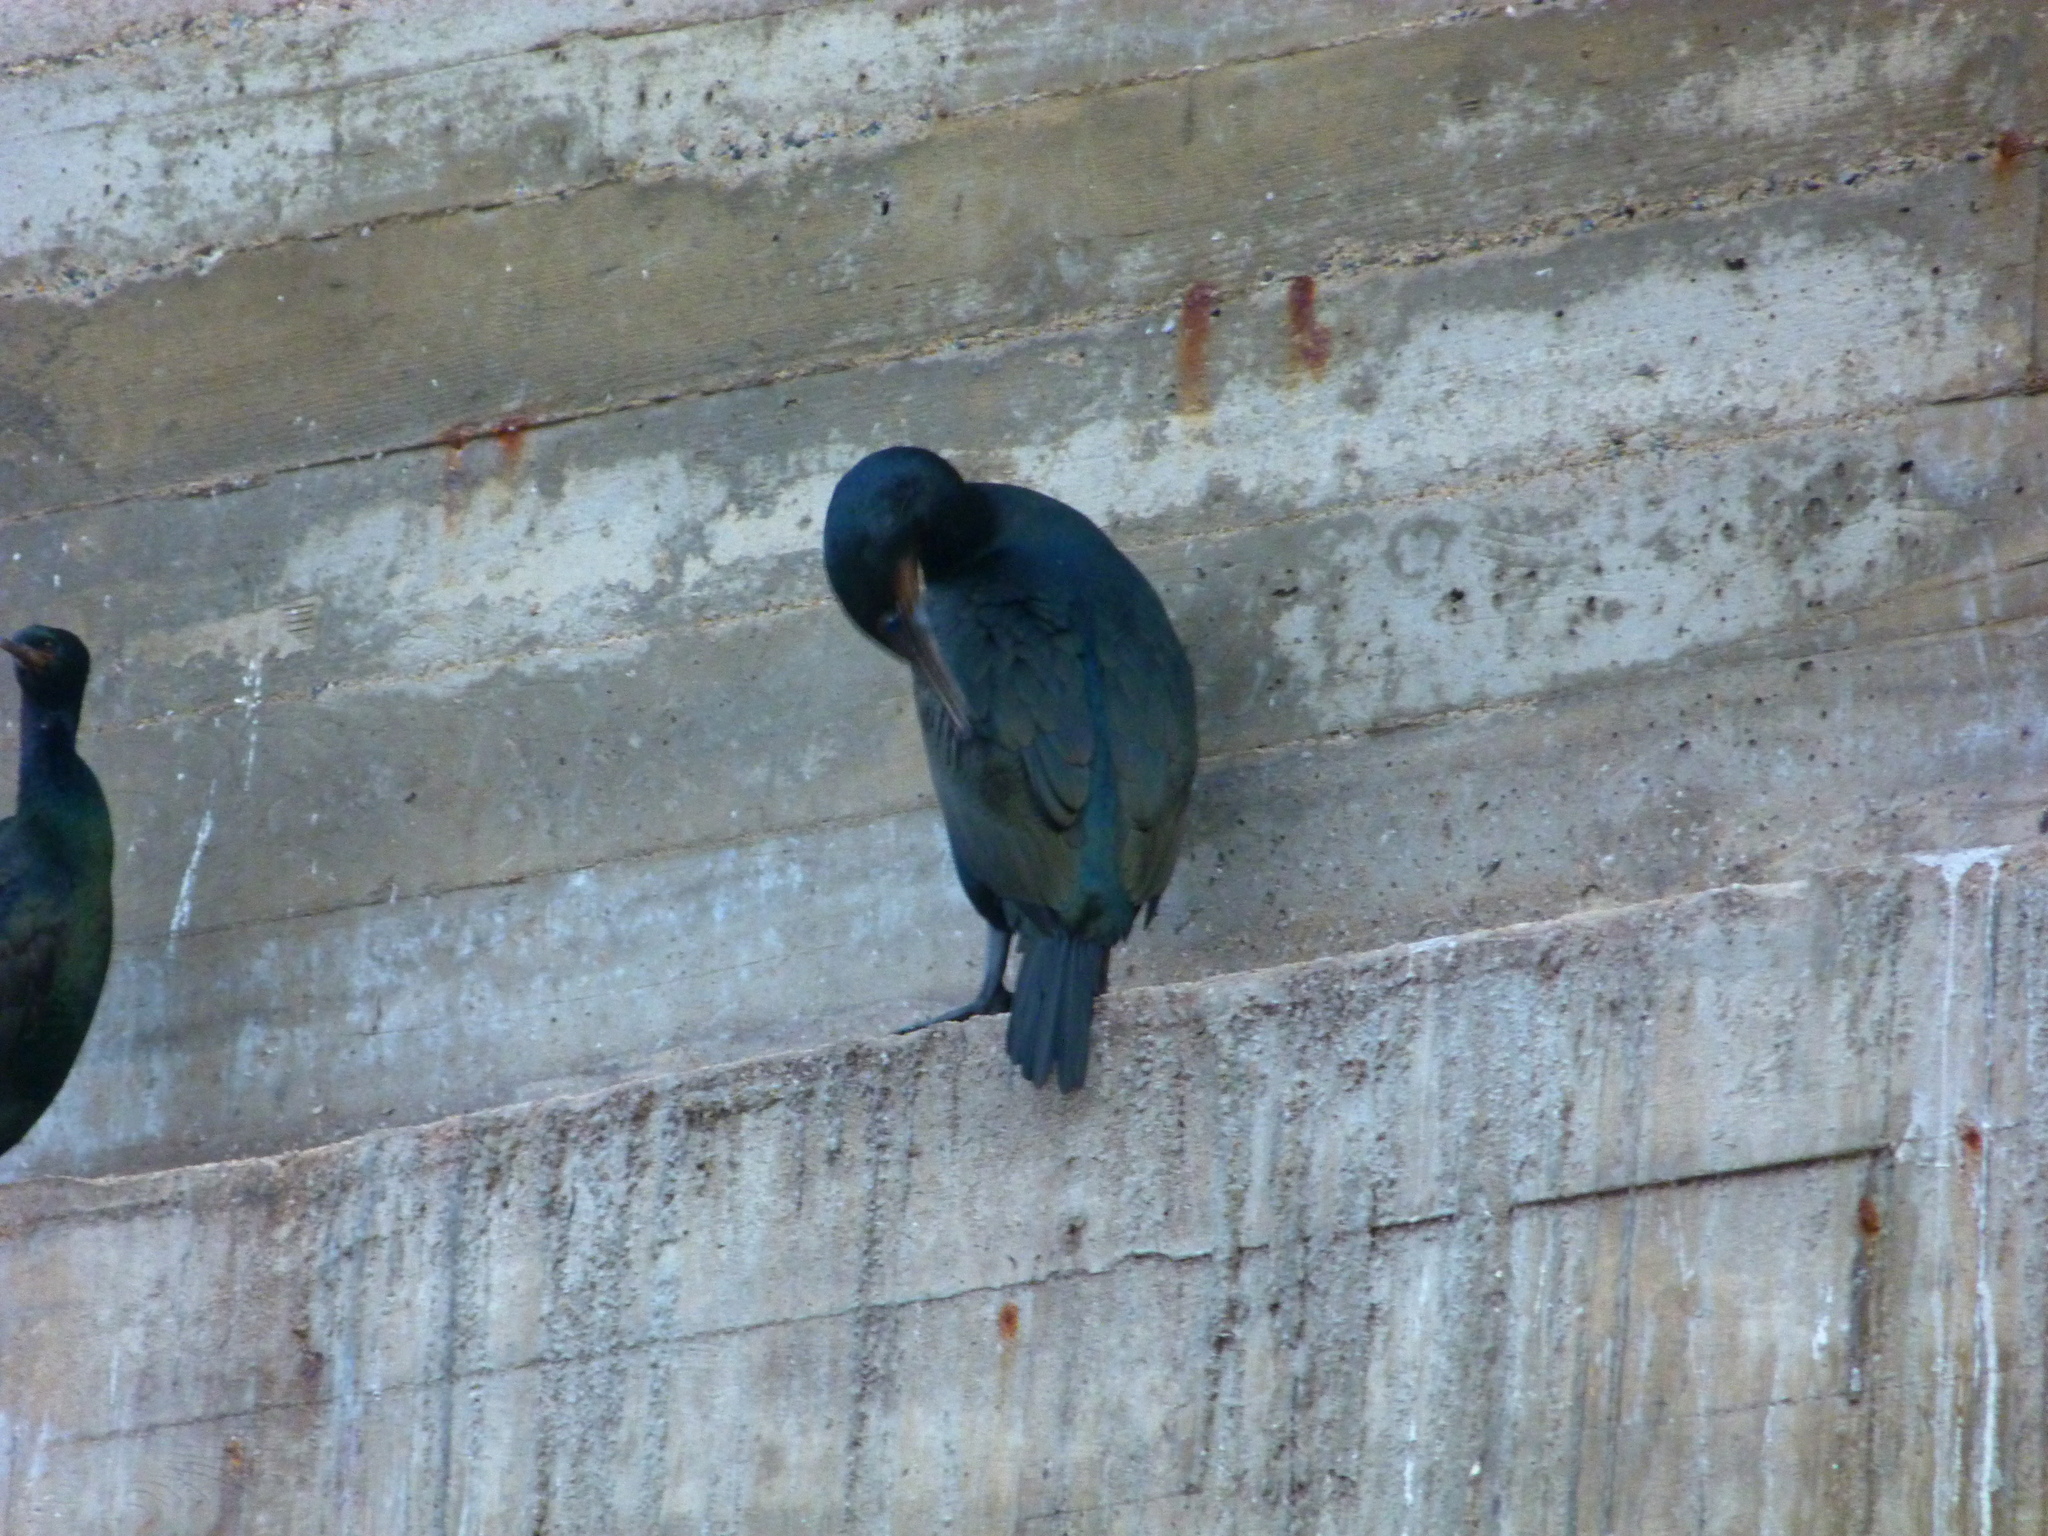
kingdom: Animalia
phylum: Chordata
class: Aves
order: Suliformes
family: Phalacrocoracidae
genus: Urile
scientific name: Urile penicillatus
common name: Brandt's cormorant
